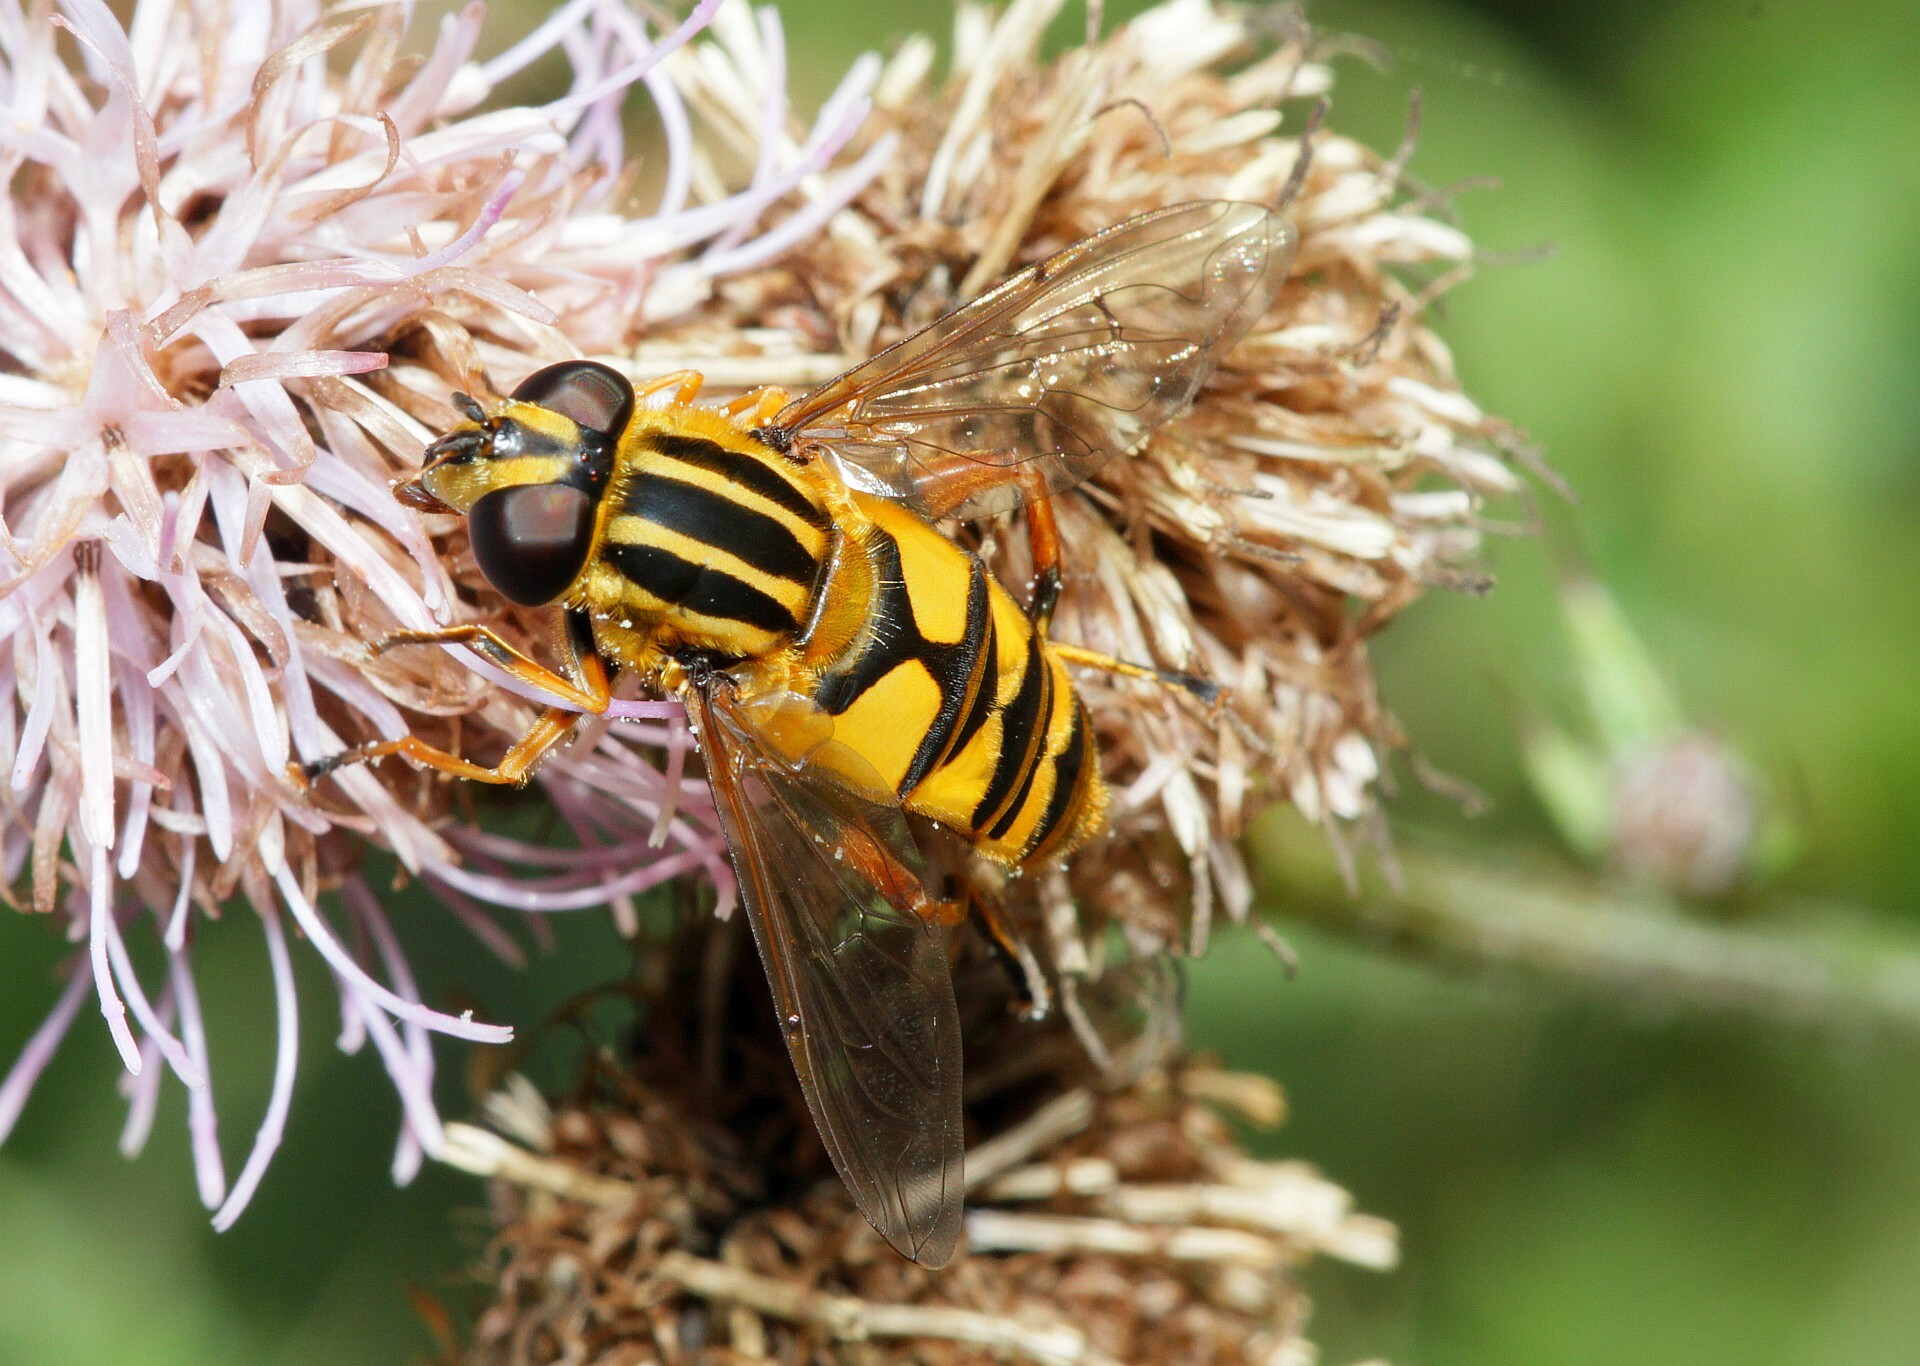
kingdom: Animalia
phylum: Arthropoda
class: Insecta
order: Diptera
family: Syrphidae
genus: Helophilus
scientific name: Helophilus pendulus
